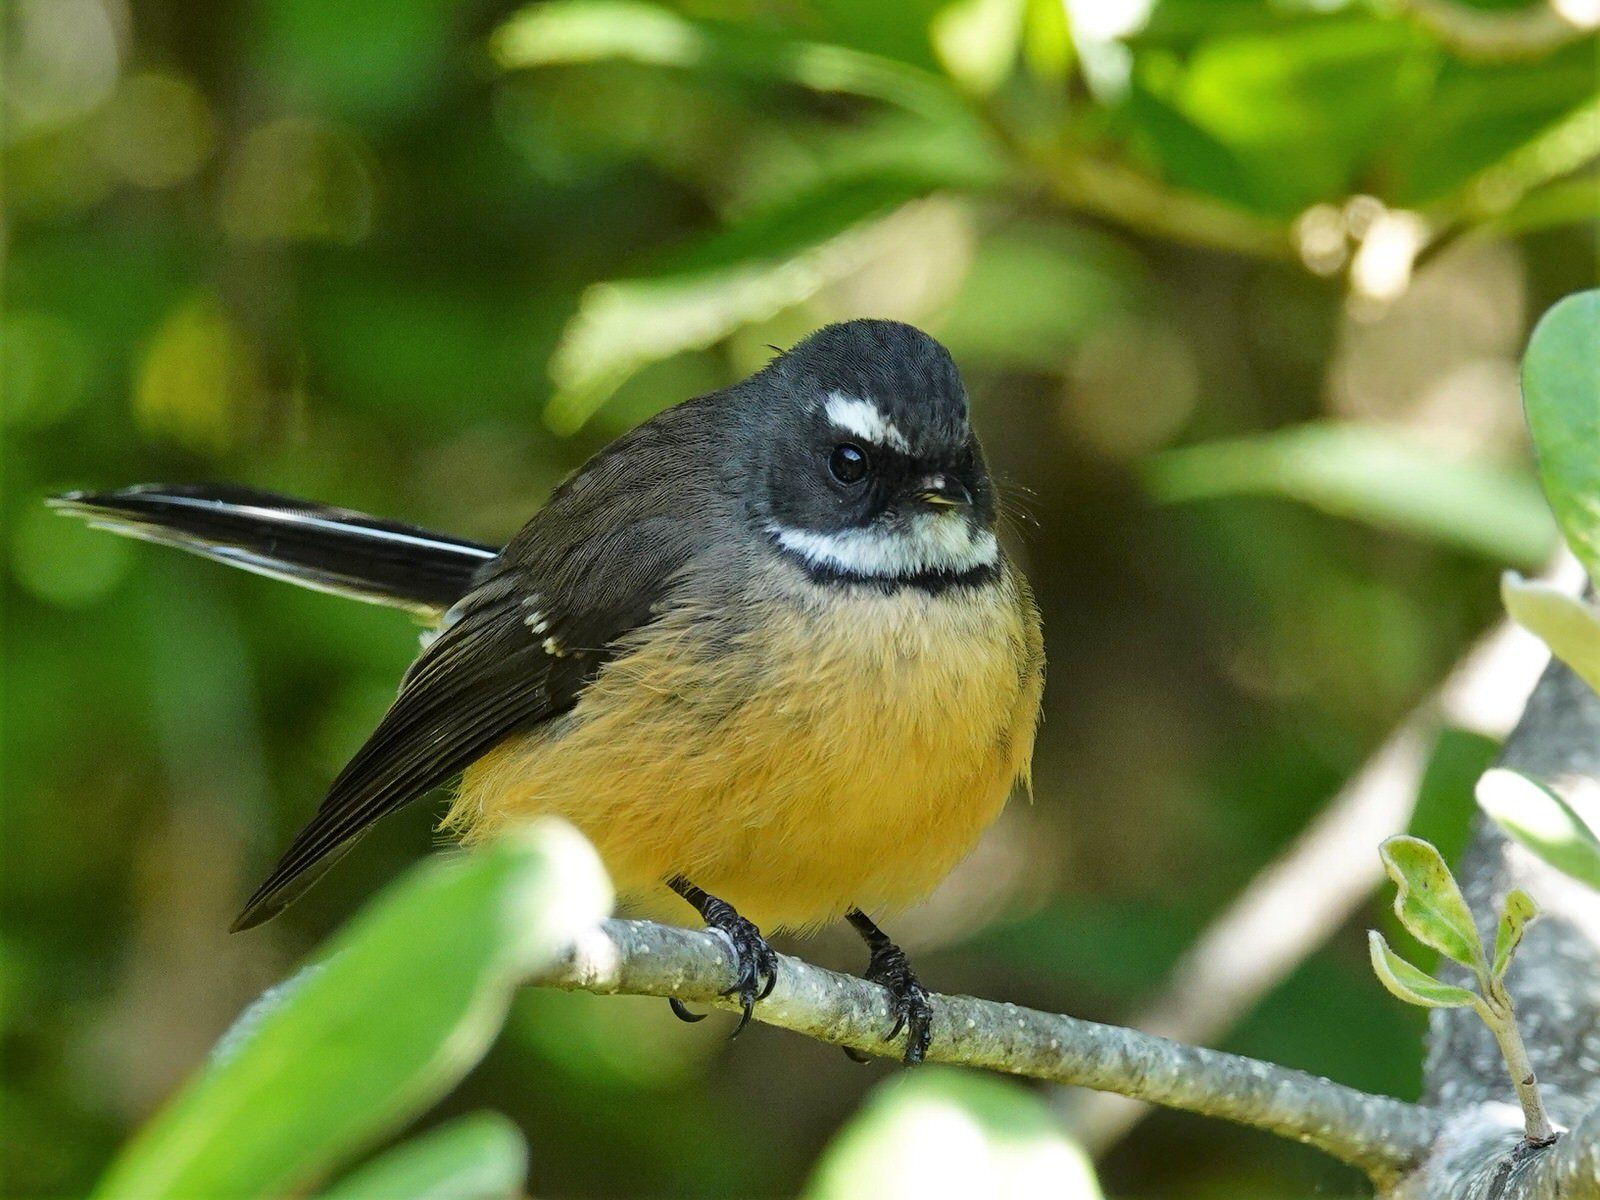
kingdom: Animalia
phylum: Chordata
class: Aves
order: Passeriformes
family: Rhipiduridae
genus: Rhipidura
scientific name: Rhipidura fuliginosa
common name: New zealand fantail
